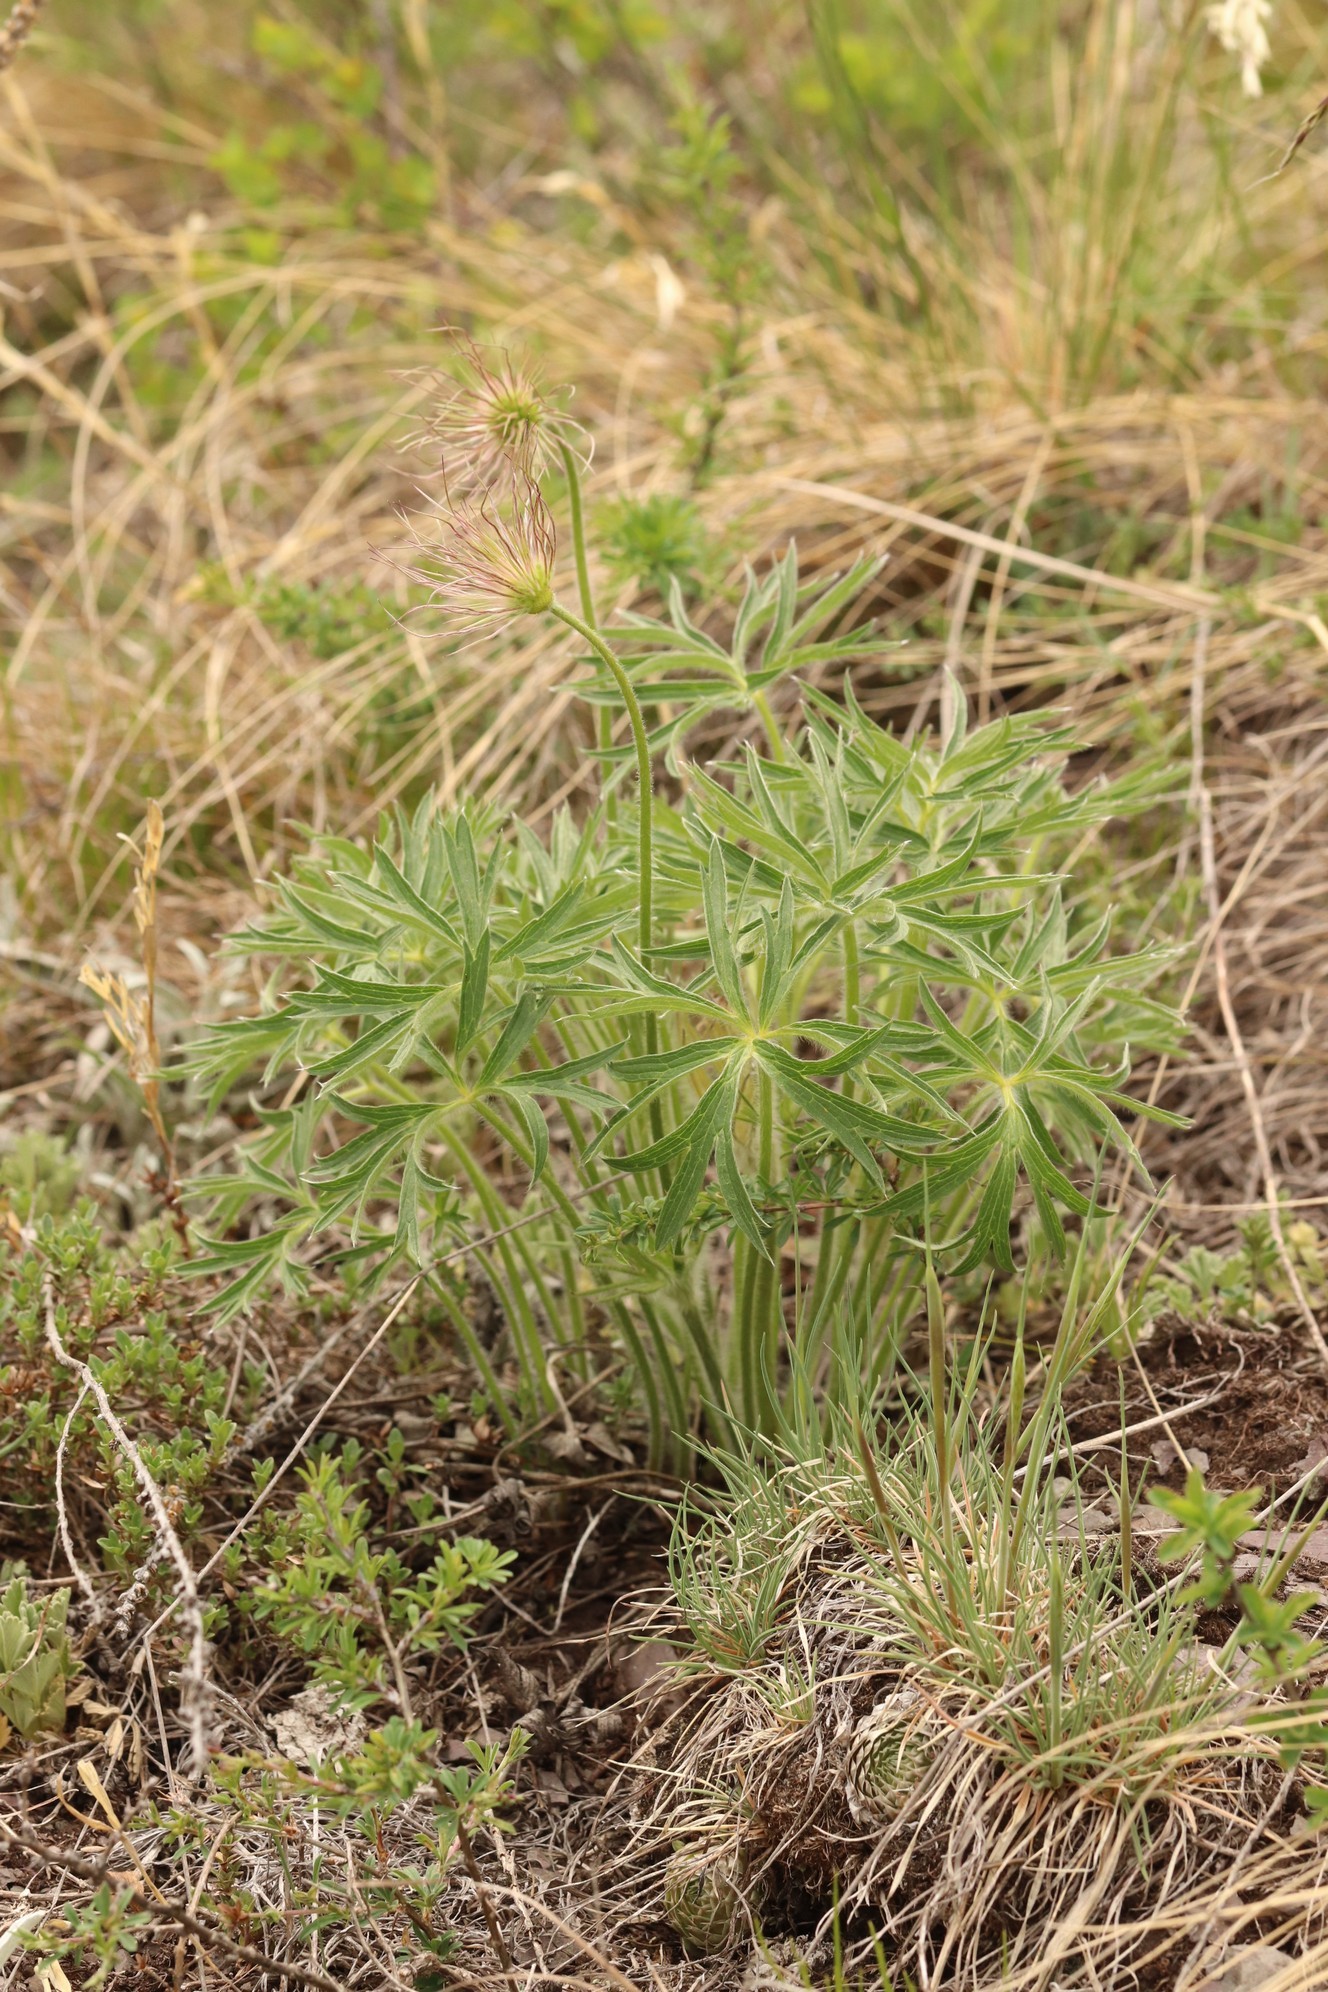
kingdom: Plantae
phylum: Tracheophyta
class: Magnoliopsida
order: Ranunculales
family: Ranunculaceae
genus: Pulsatilla
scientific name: Pulsatilla patens
